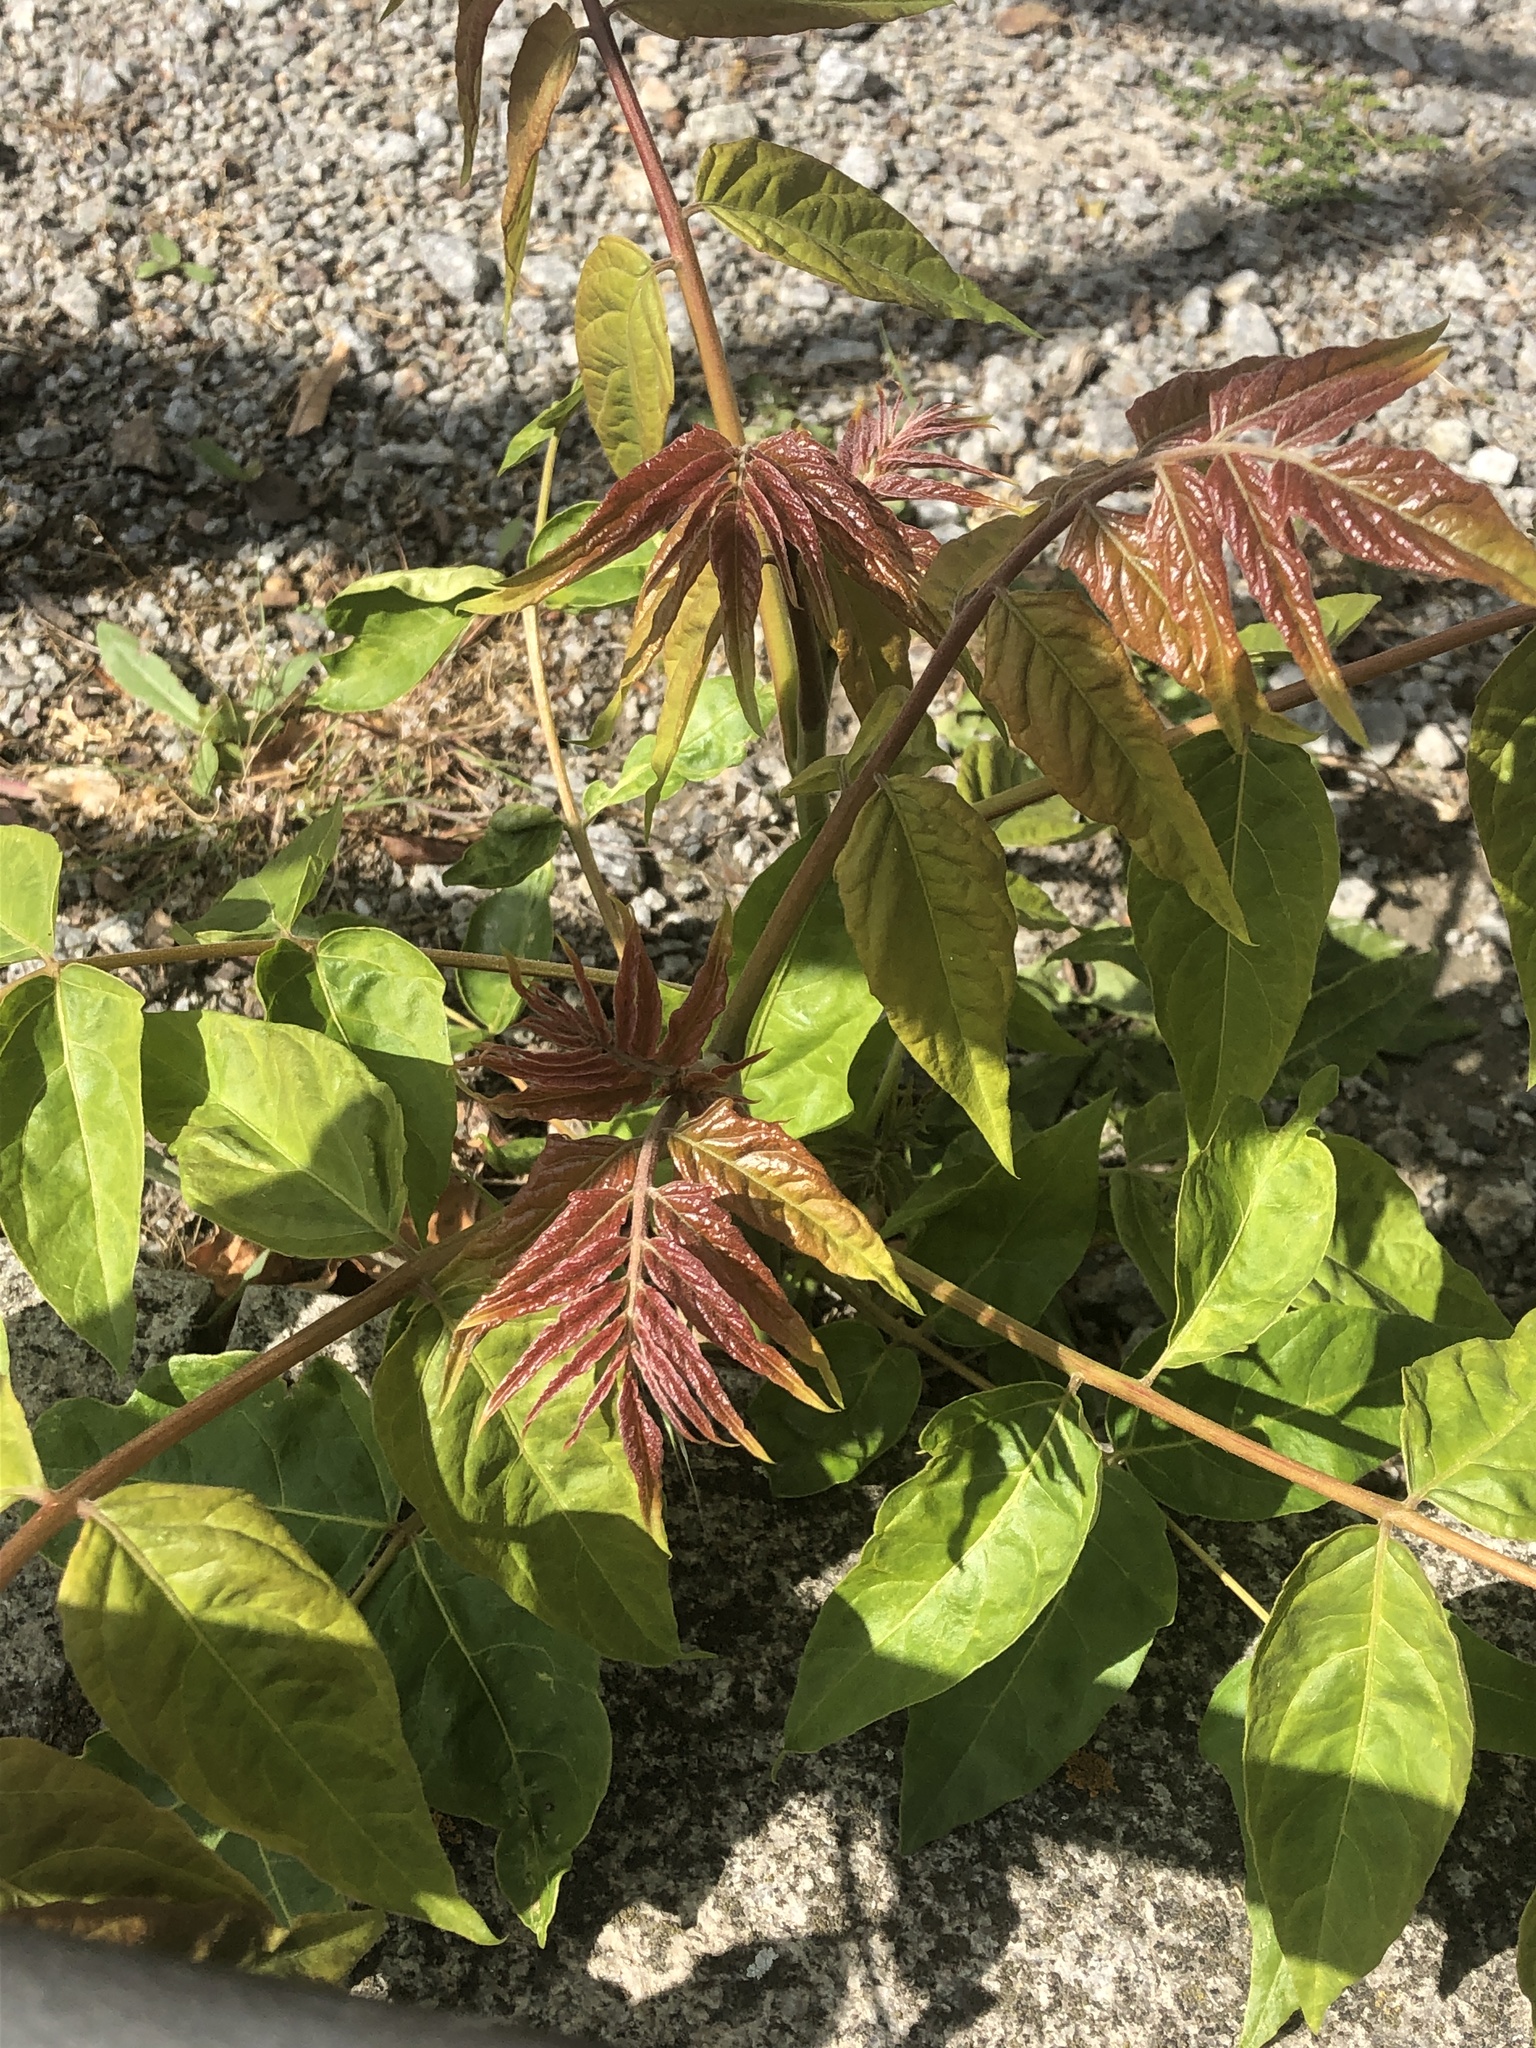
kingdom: Plantae
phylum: Tracheophyta
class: Magnoliopsida
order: Sapindales
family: Simaroubaceae
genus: Ailanthus
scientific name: Ailanthus altissima
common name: Tree-of-heaven
